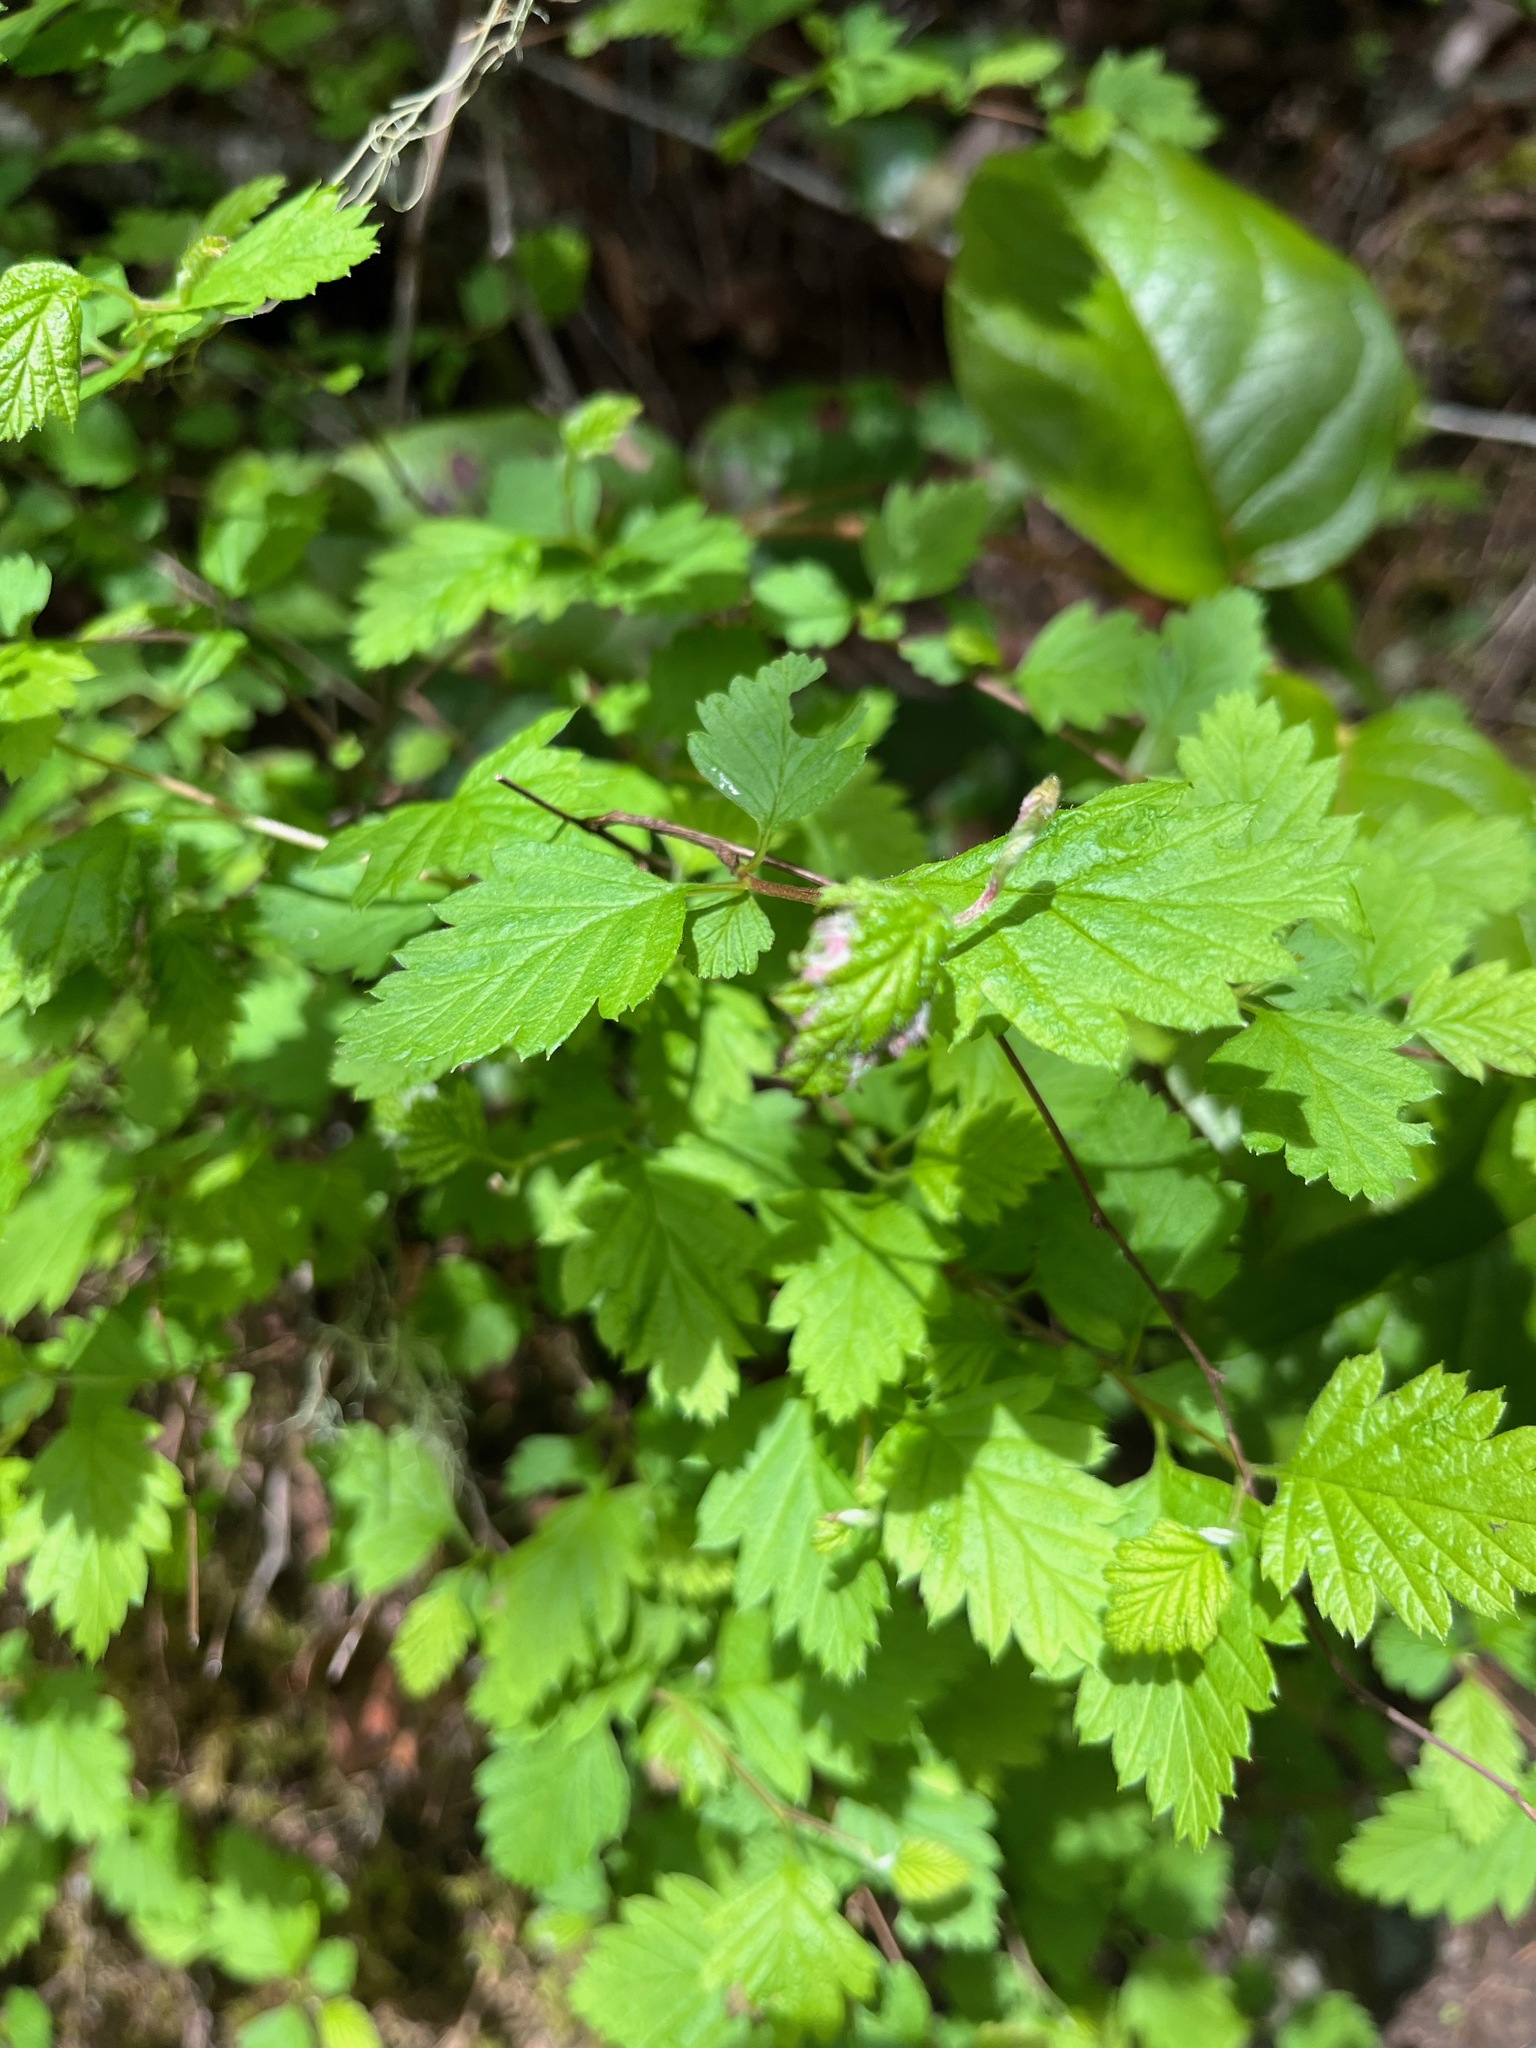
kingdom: Plantae
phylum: Tracheophyta
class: Magnoliopsida
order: Rosales
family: Rosaceae
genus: Holodiscus
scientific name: Holodiscus discolor
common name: Oceanspray
